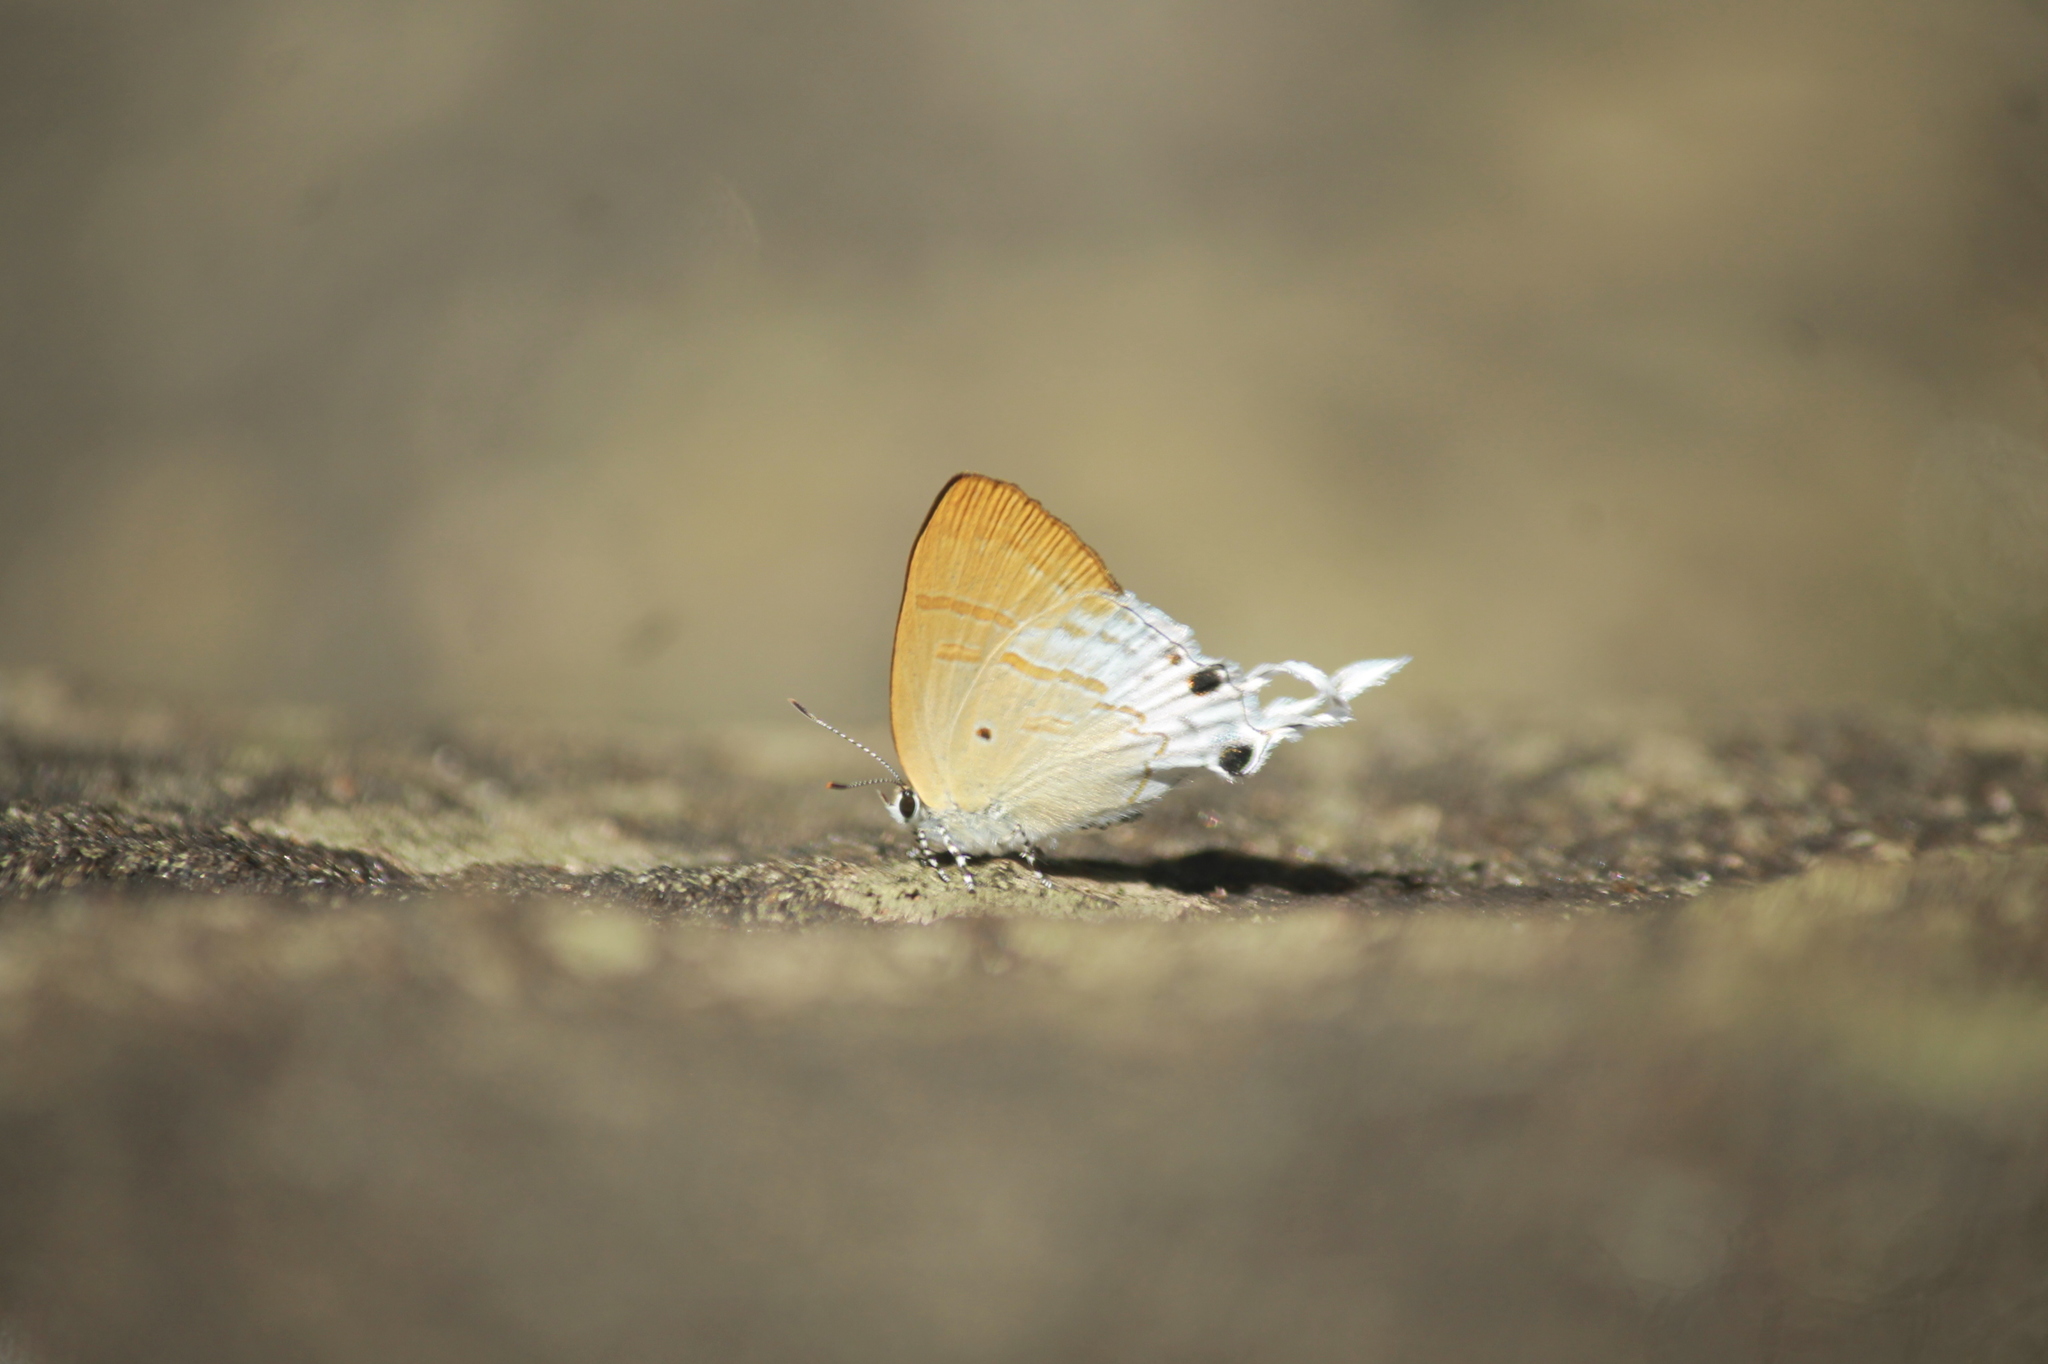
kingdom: Animalia
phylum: Arthropoda
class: Insecta
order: Lepidoptera
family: Lycaenidae
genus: Zeltus
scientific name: Zeltus amasa
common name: Fluffy tit
